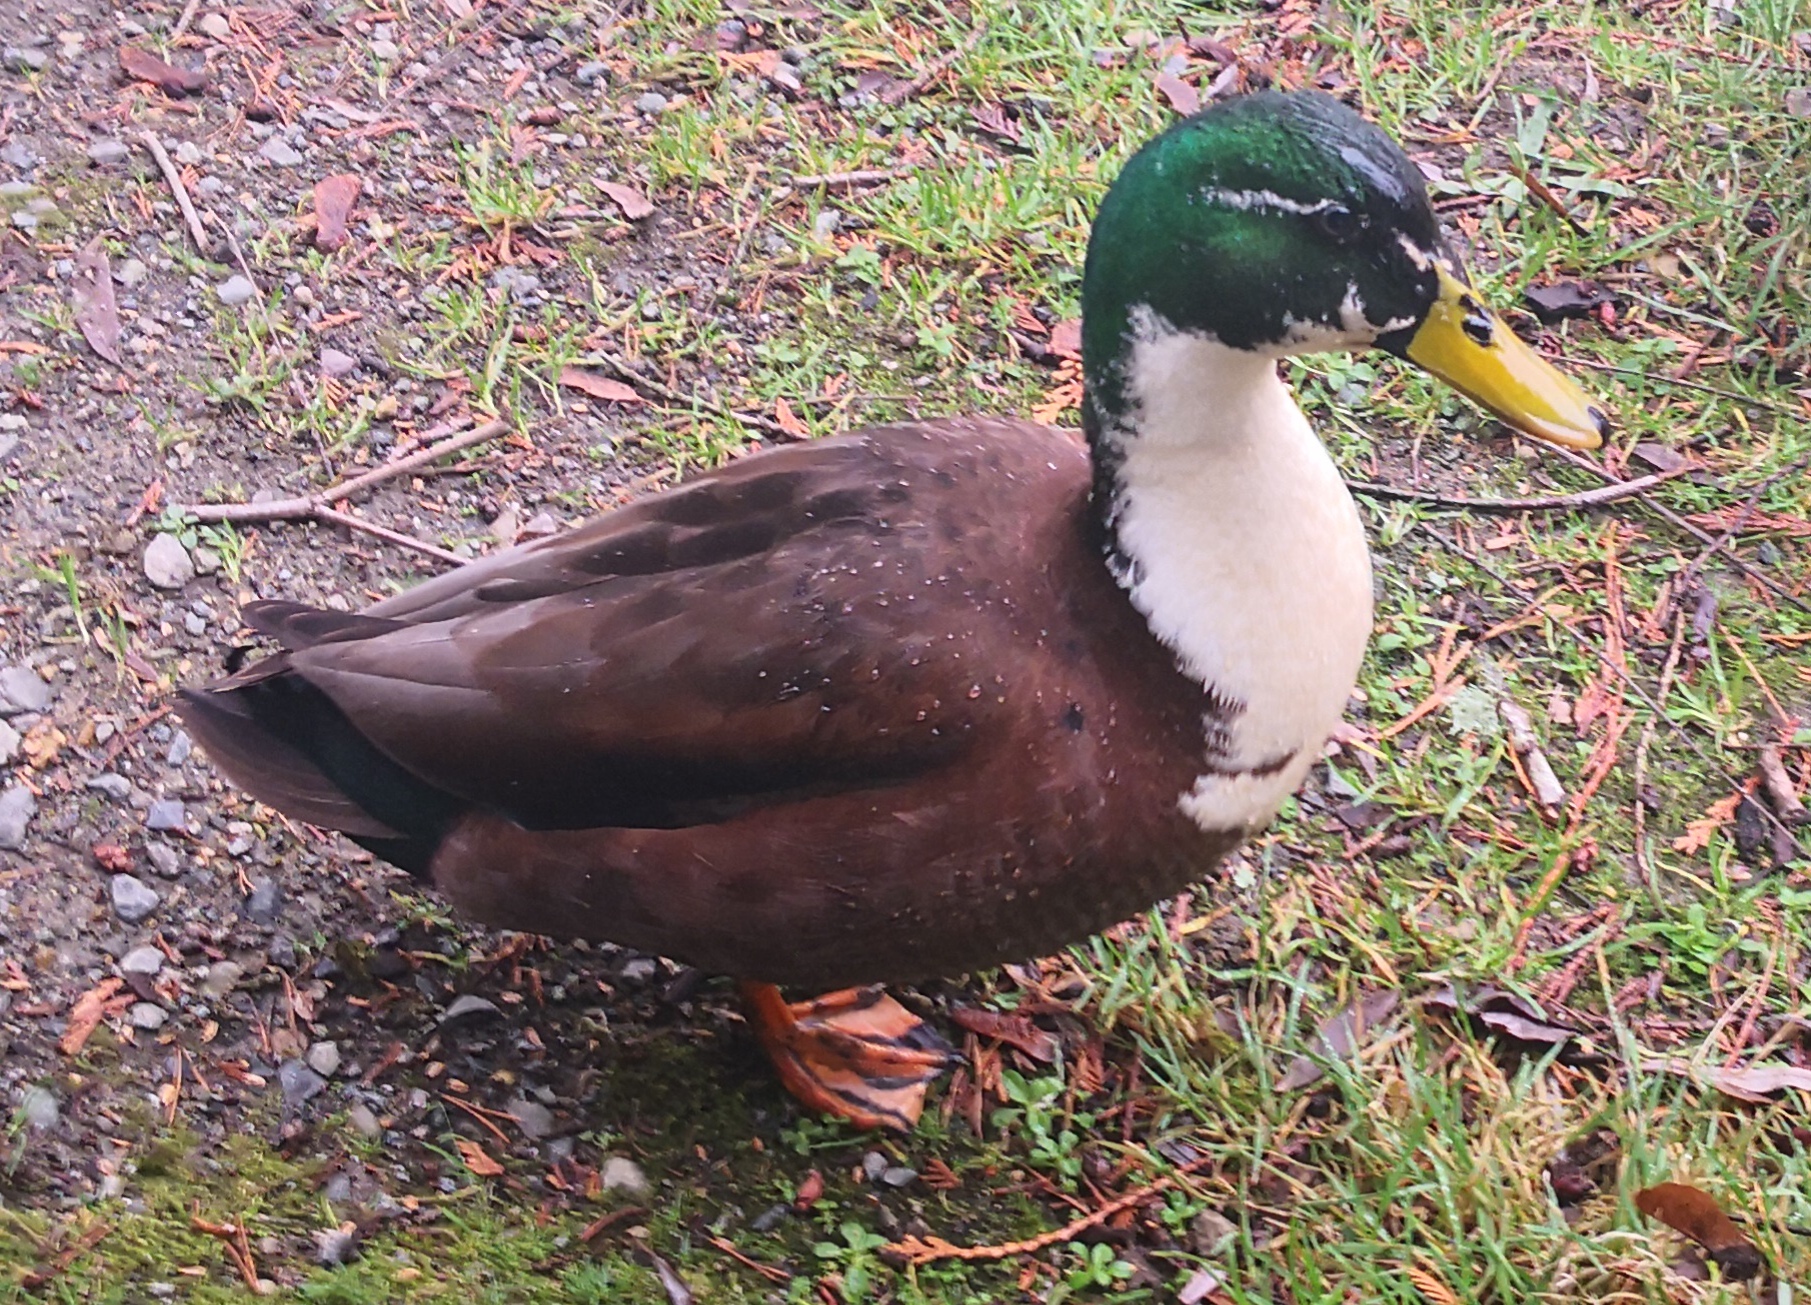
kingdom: Animalia
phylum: Chordata
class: Aves
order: Anseriformes
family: Anatidae
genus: Anas
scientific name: Anas platyrhynchos
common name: Mallard
